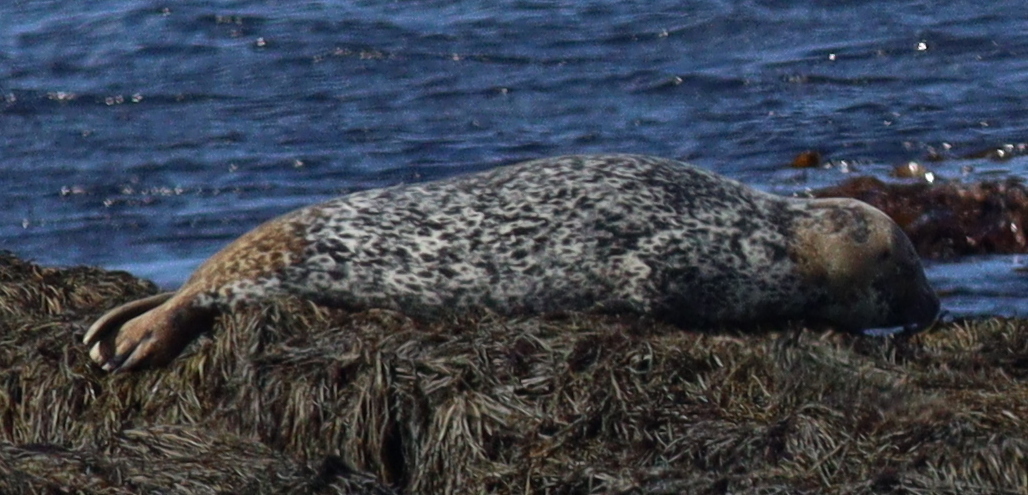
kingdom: Animalia
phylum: Chordata
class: Mammalia
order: Carnivora
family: Phocidae
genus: Phoca
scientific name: Phoca vitulina
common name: Harbor seal
